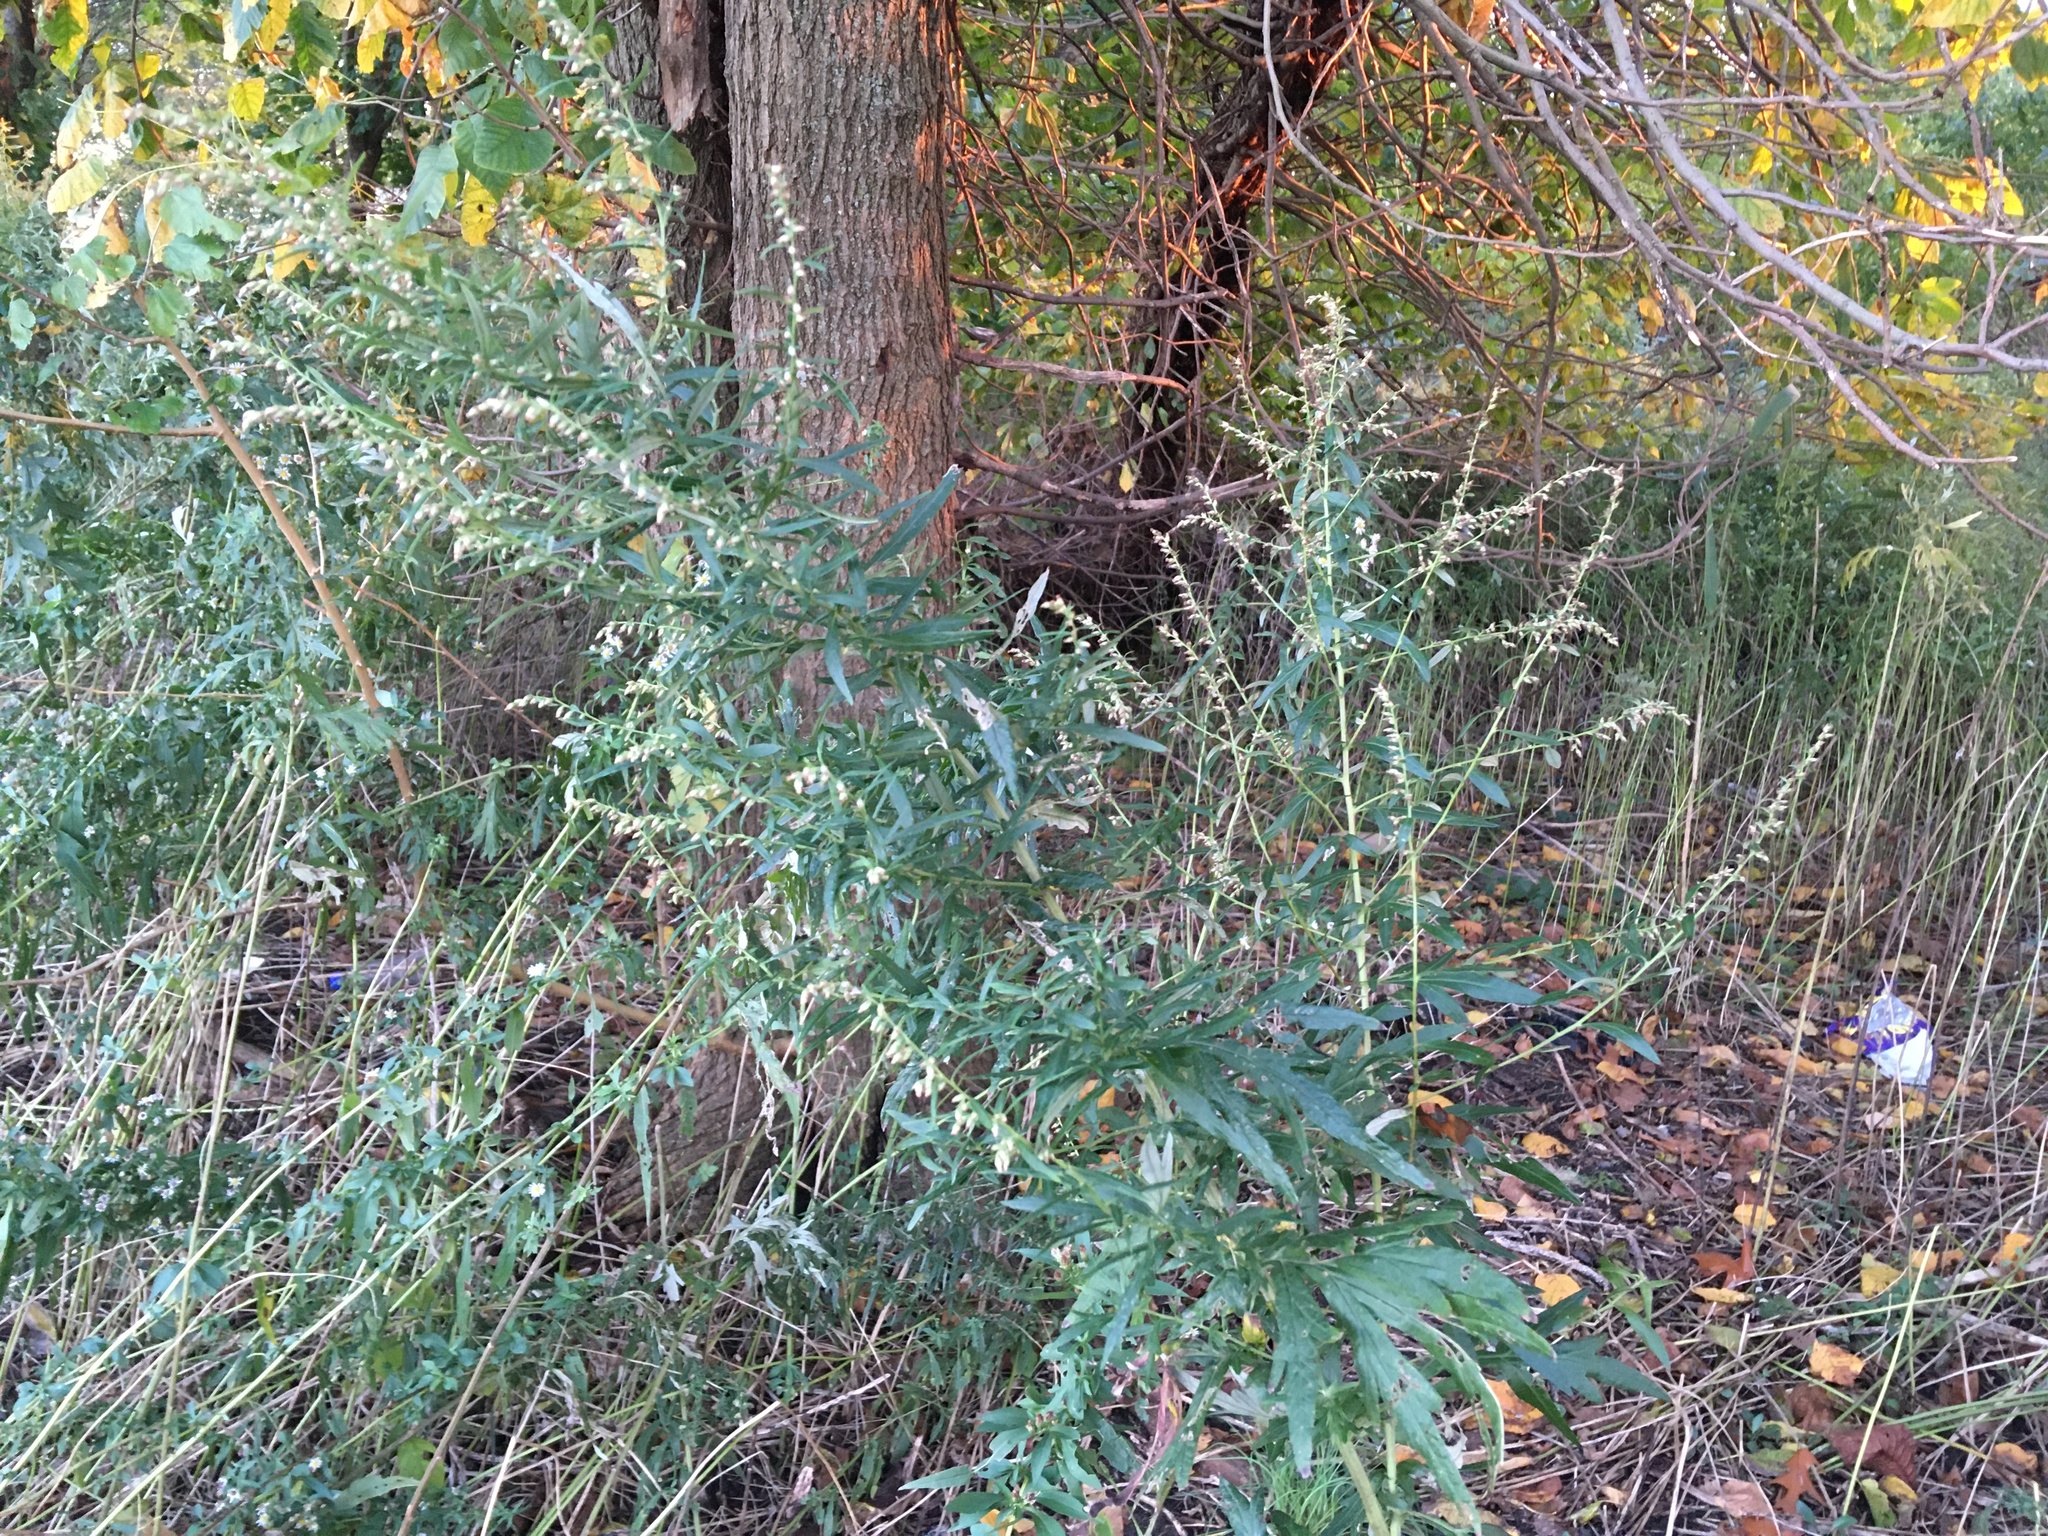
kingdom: Plantae
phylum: Tracheophyta
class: Magnoliopsida
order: Asterales
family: Asteraceae
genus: Artemisia
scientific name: Artemisia vulgaris
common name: Mugwort
